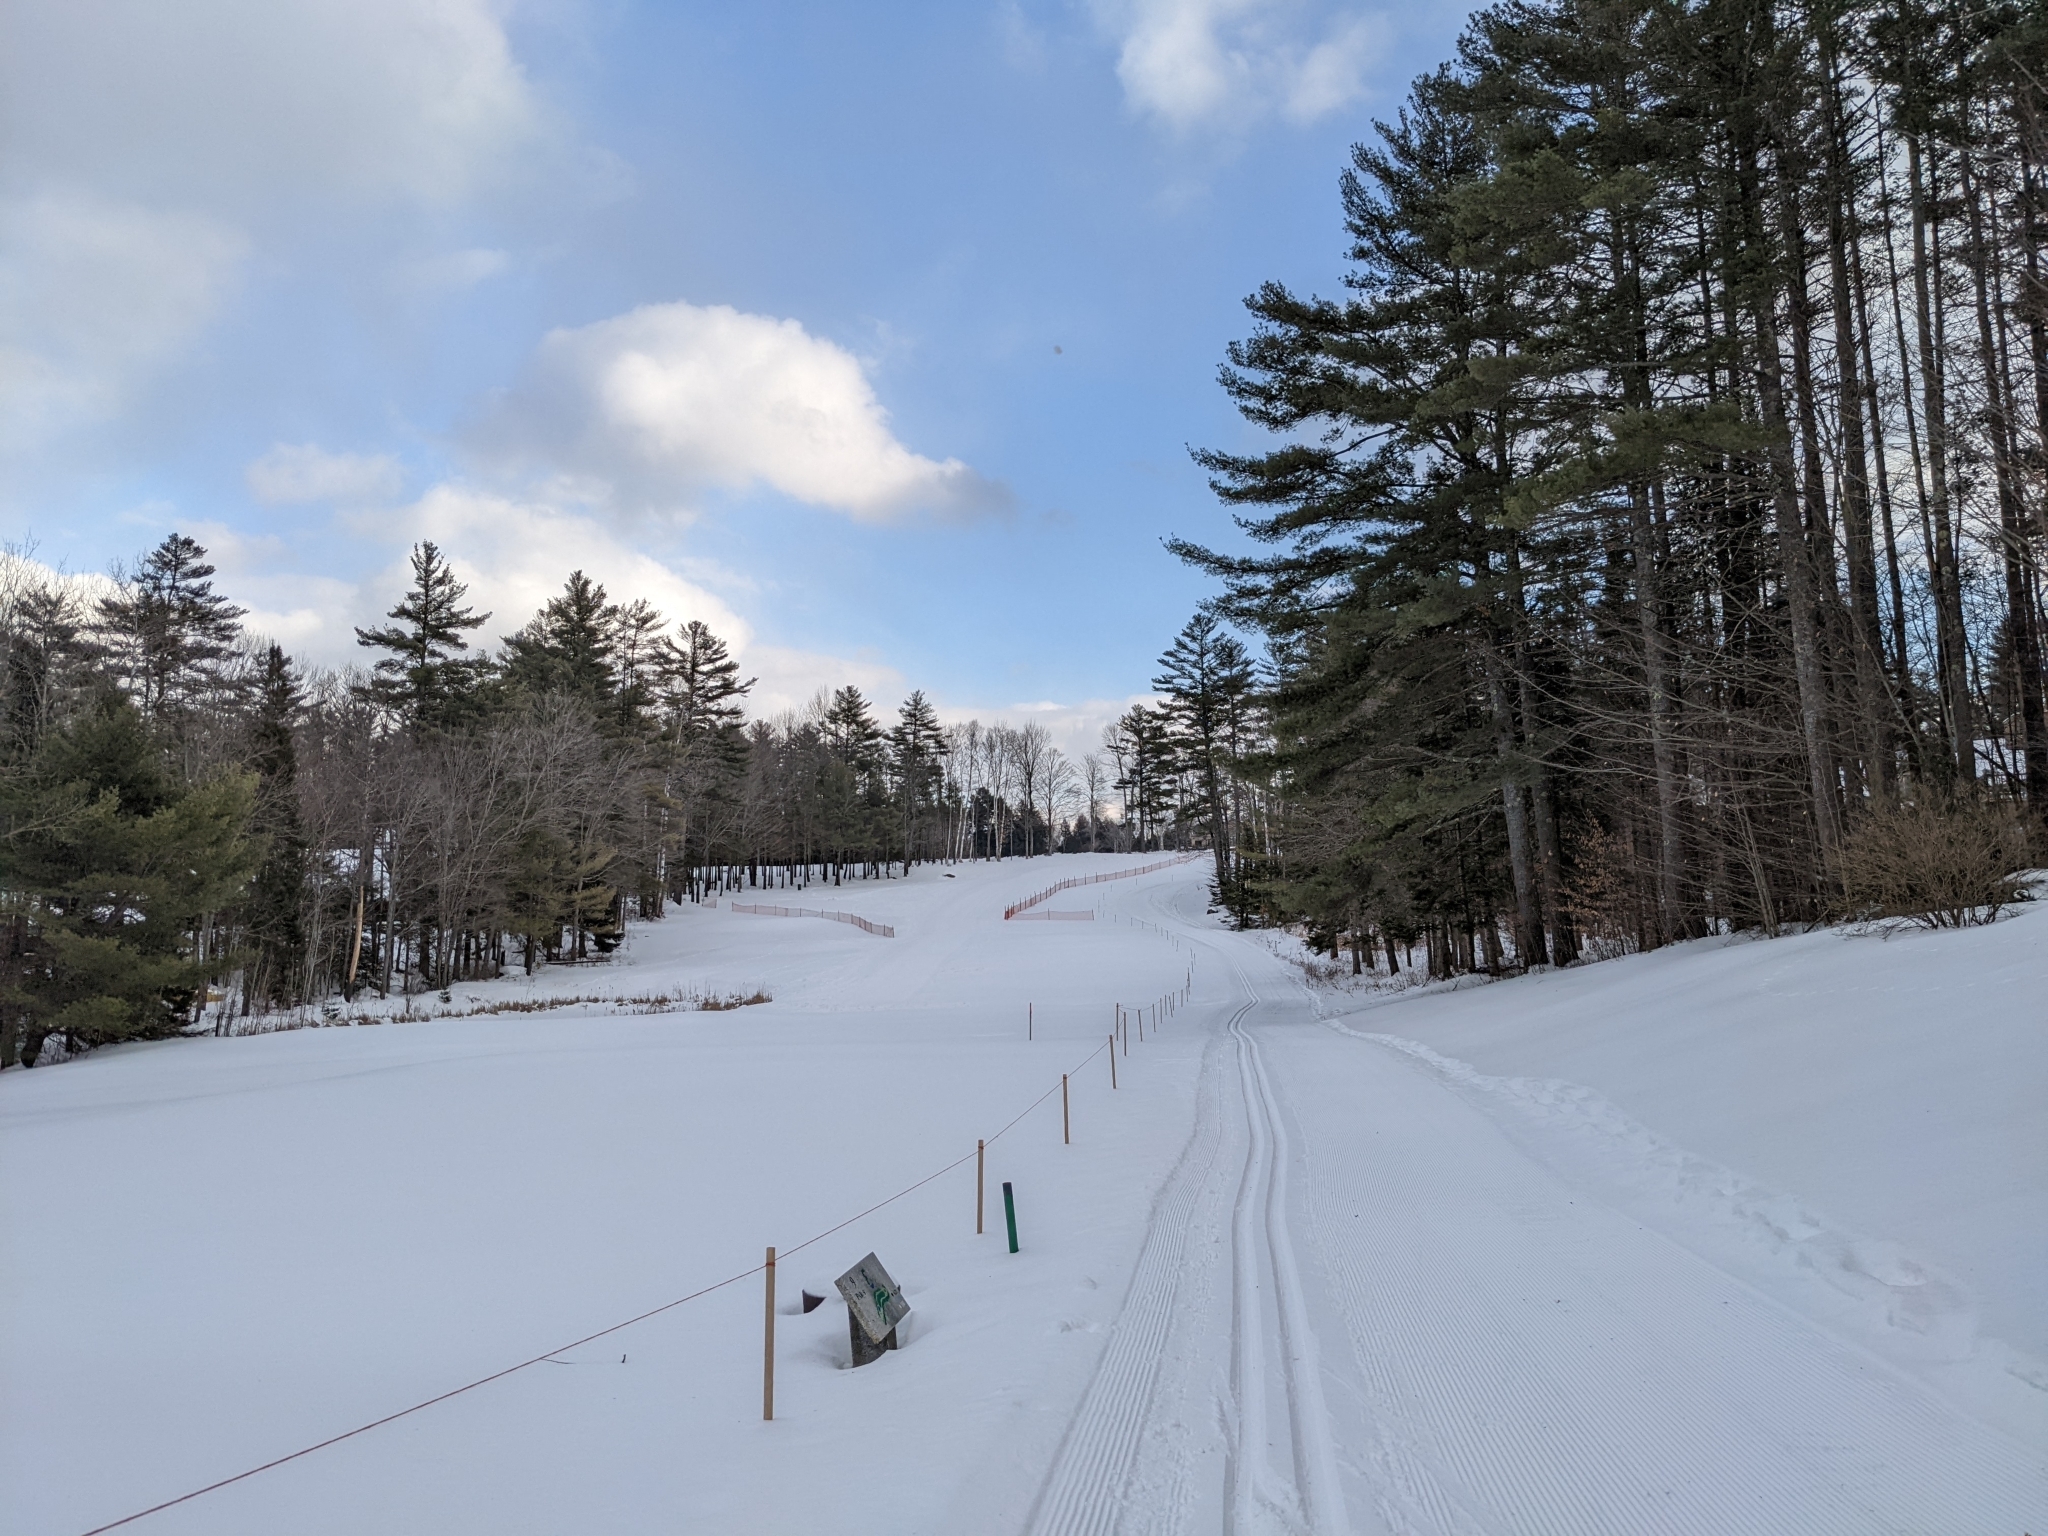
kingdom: Plantae
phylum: Tracheophyta
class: Pinopsida
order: Pinales
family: Pinaceae
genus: Pinus
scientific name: Pinus strobus
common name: Weymouth pine
